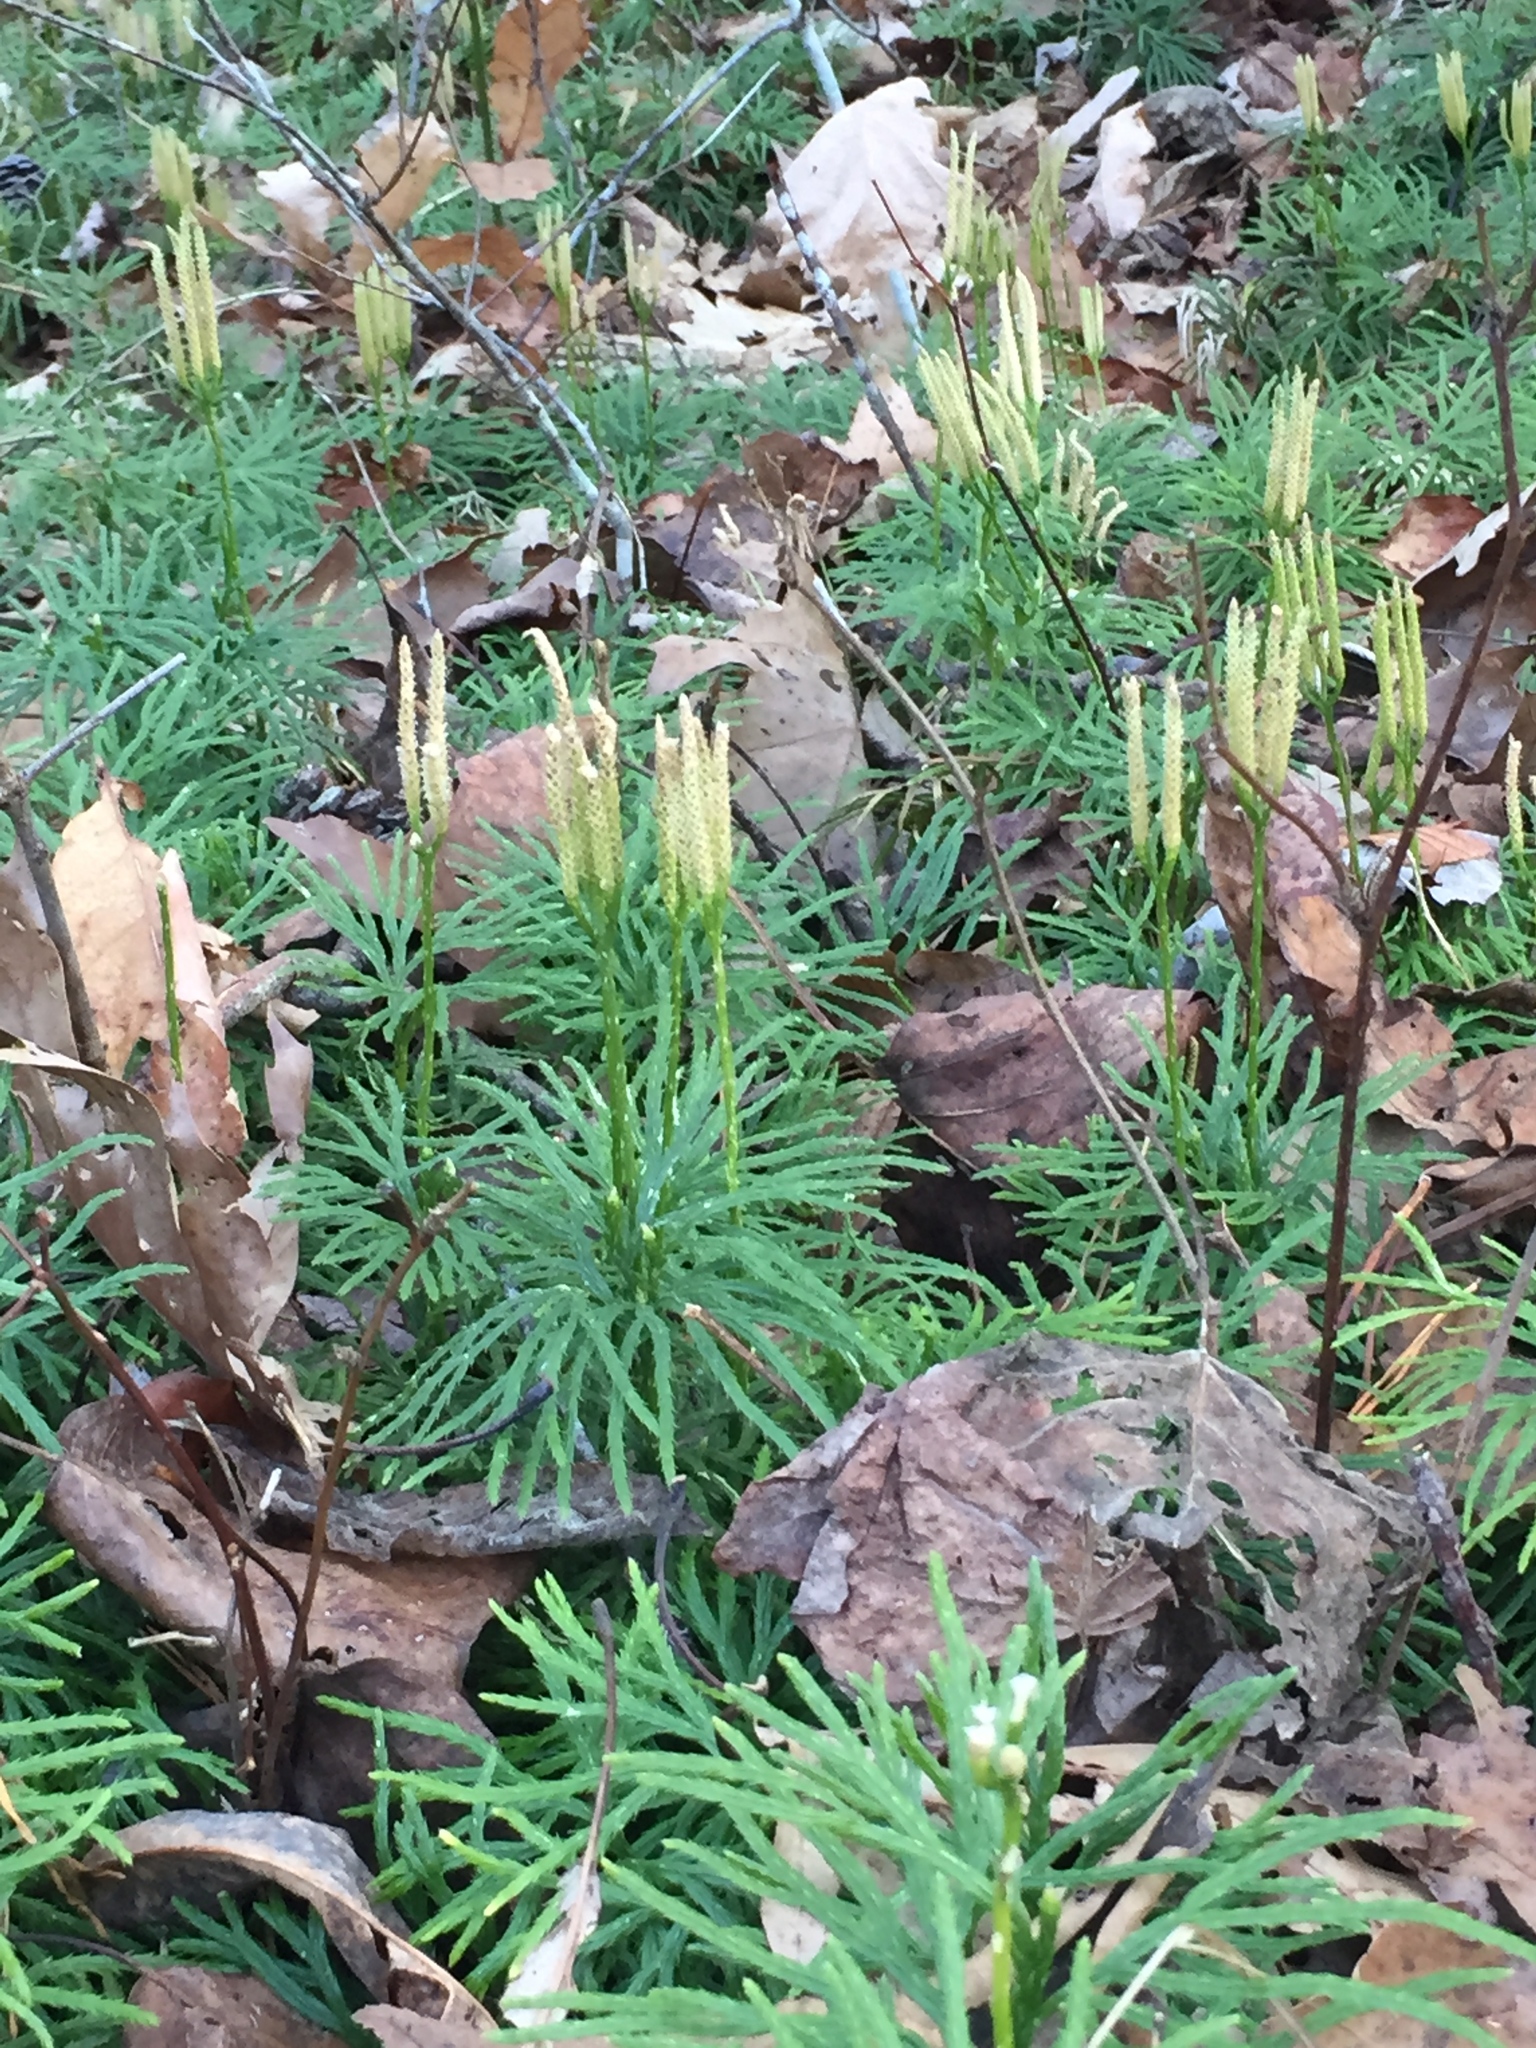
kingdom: Plantae
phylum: Tracheophyta
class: Lycopodiopsida
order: Lycopodiales
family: Lycopodiaceae
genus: Diphasiastrum
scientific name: Diphasiastrum digitatum
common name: Southern running-pine
